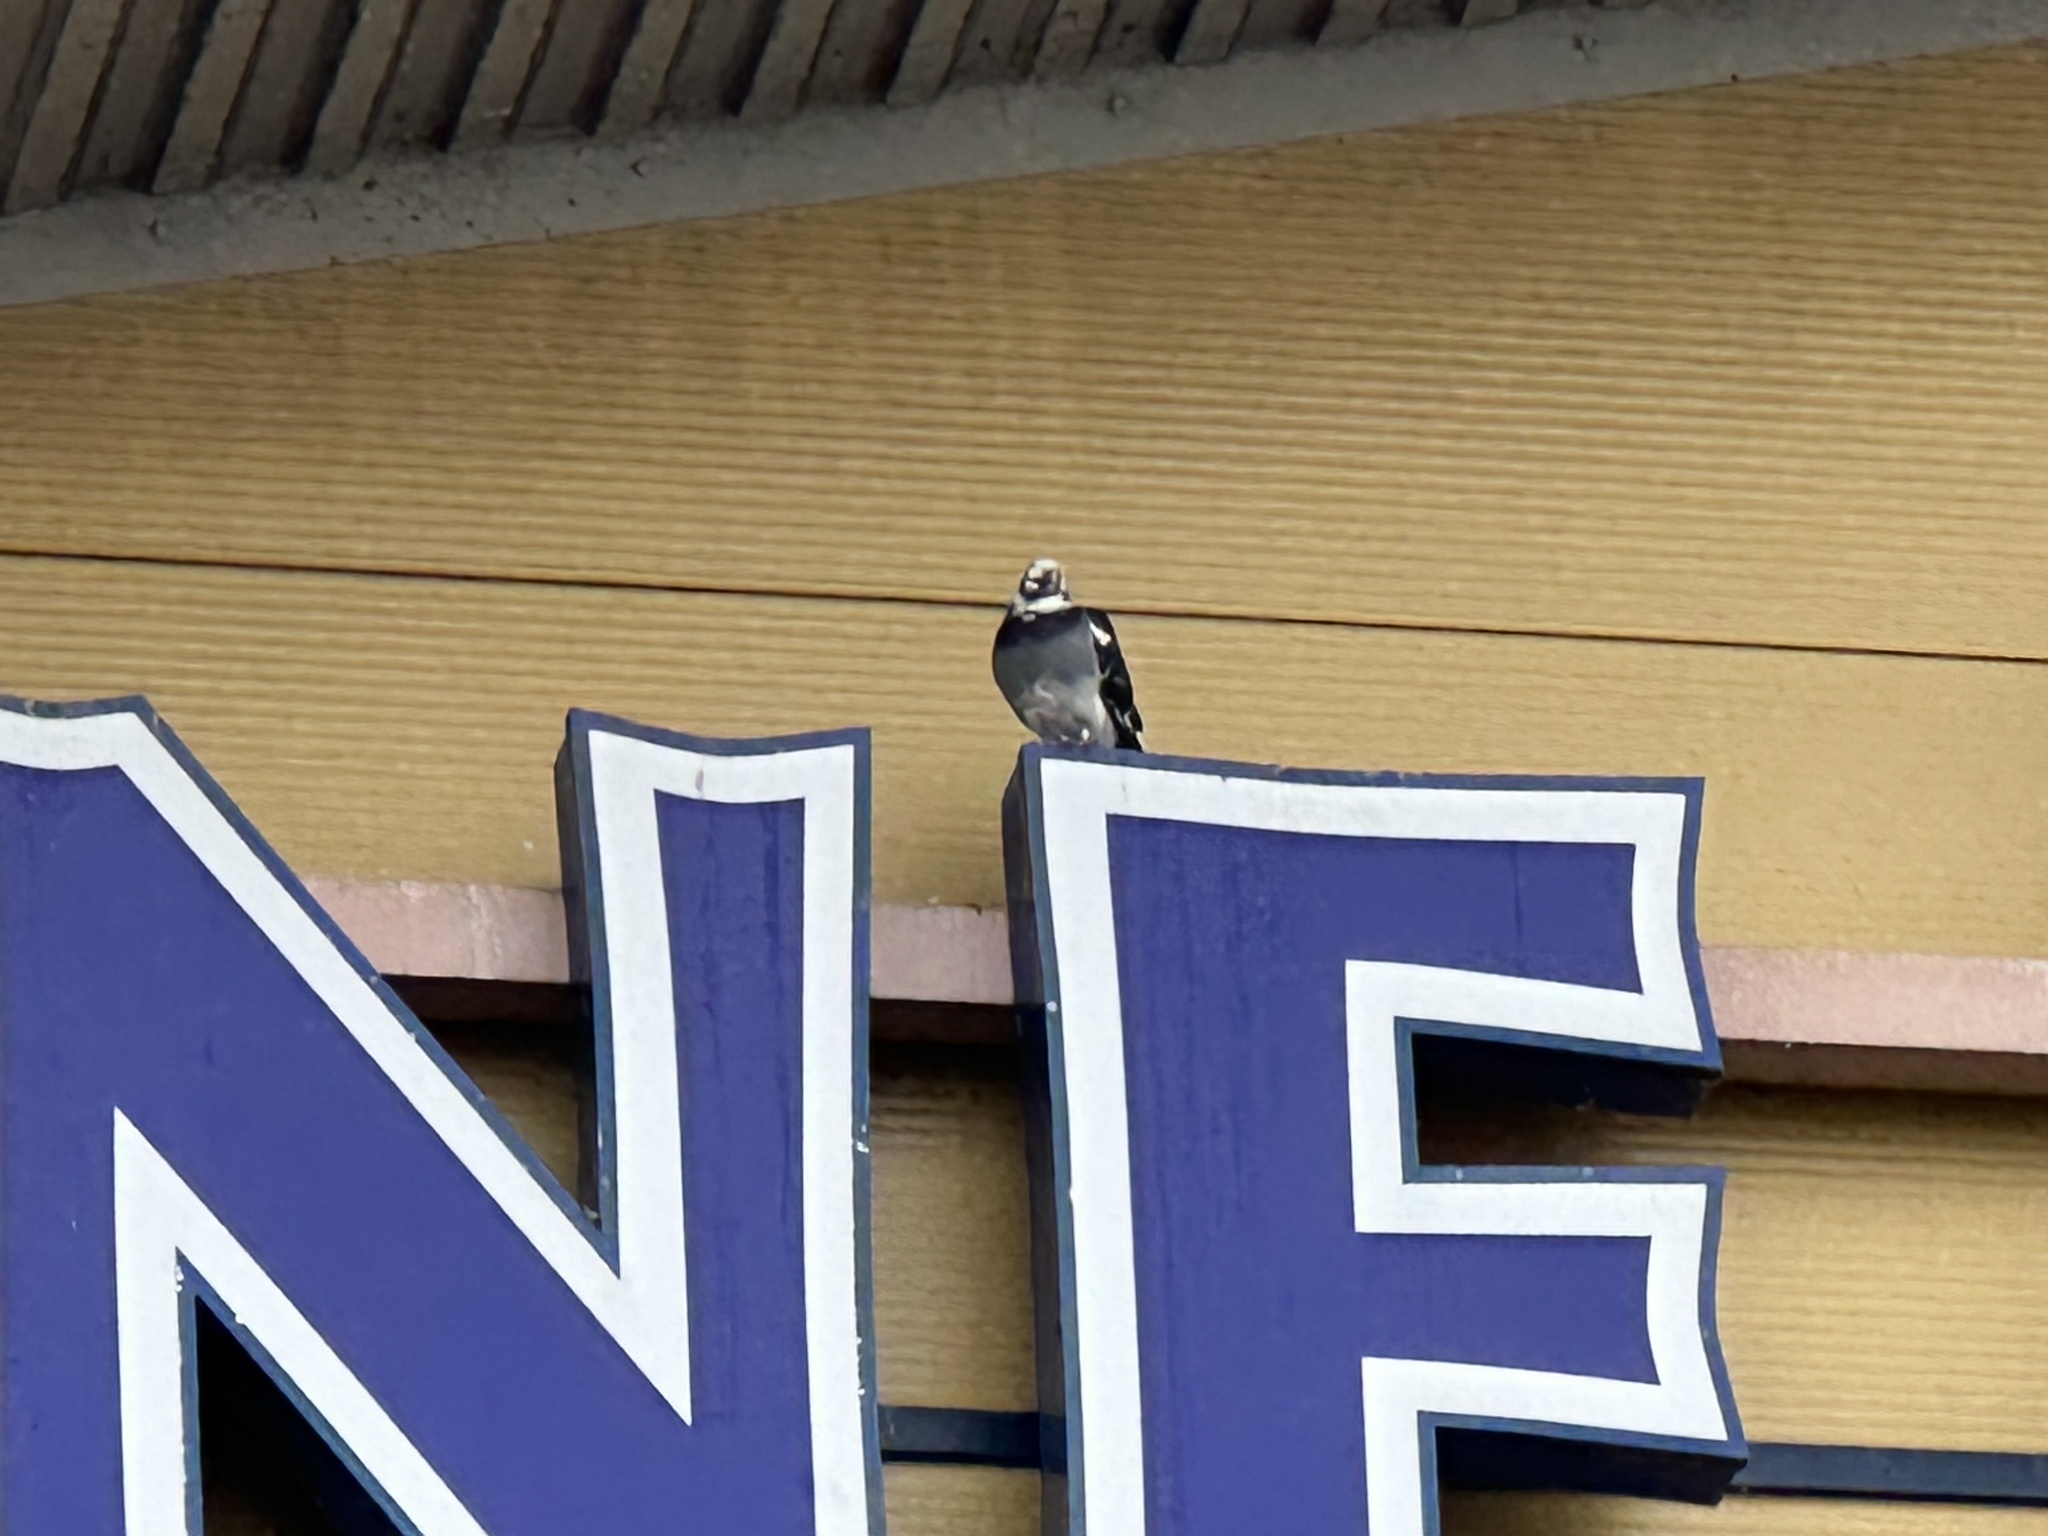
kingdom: Animalia
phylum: Chordata
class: Aves
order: Columbiformes
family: Columbidae
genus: Columba
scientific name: Columba livia
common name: Rock pigeon
